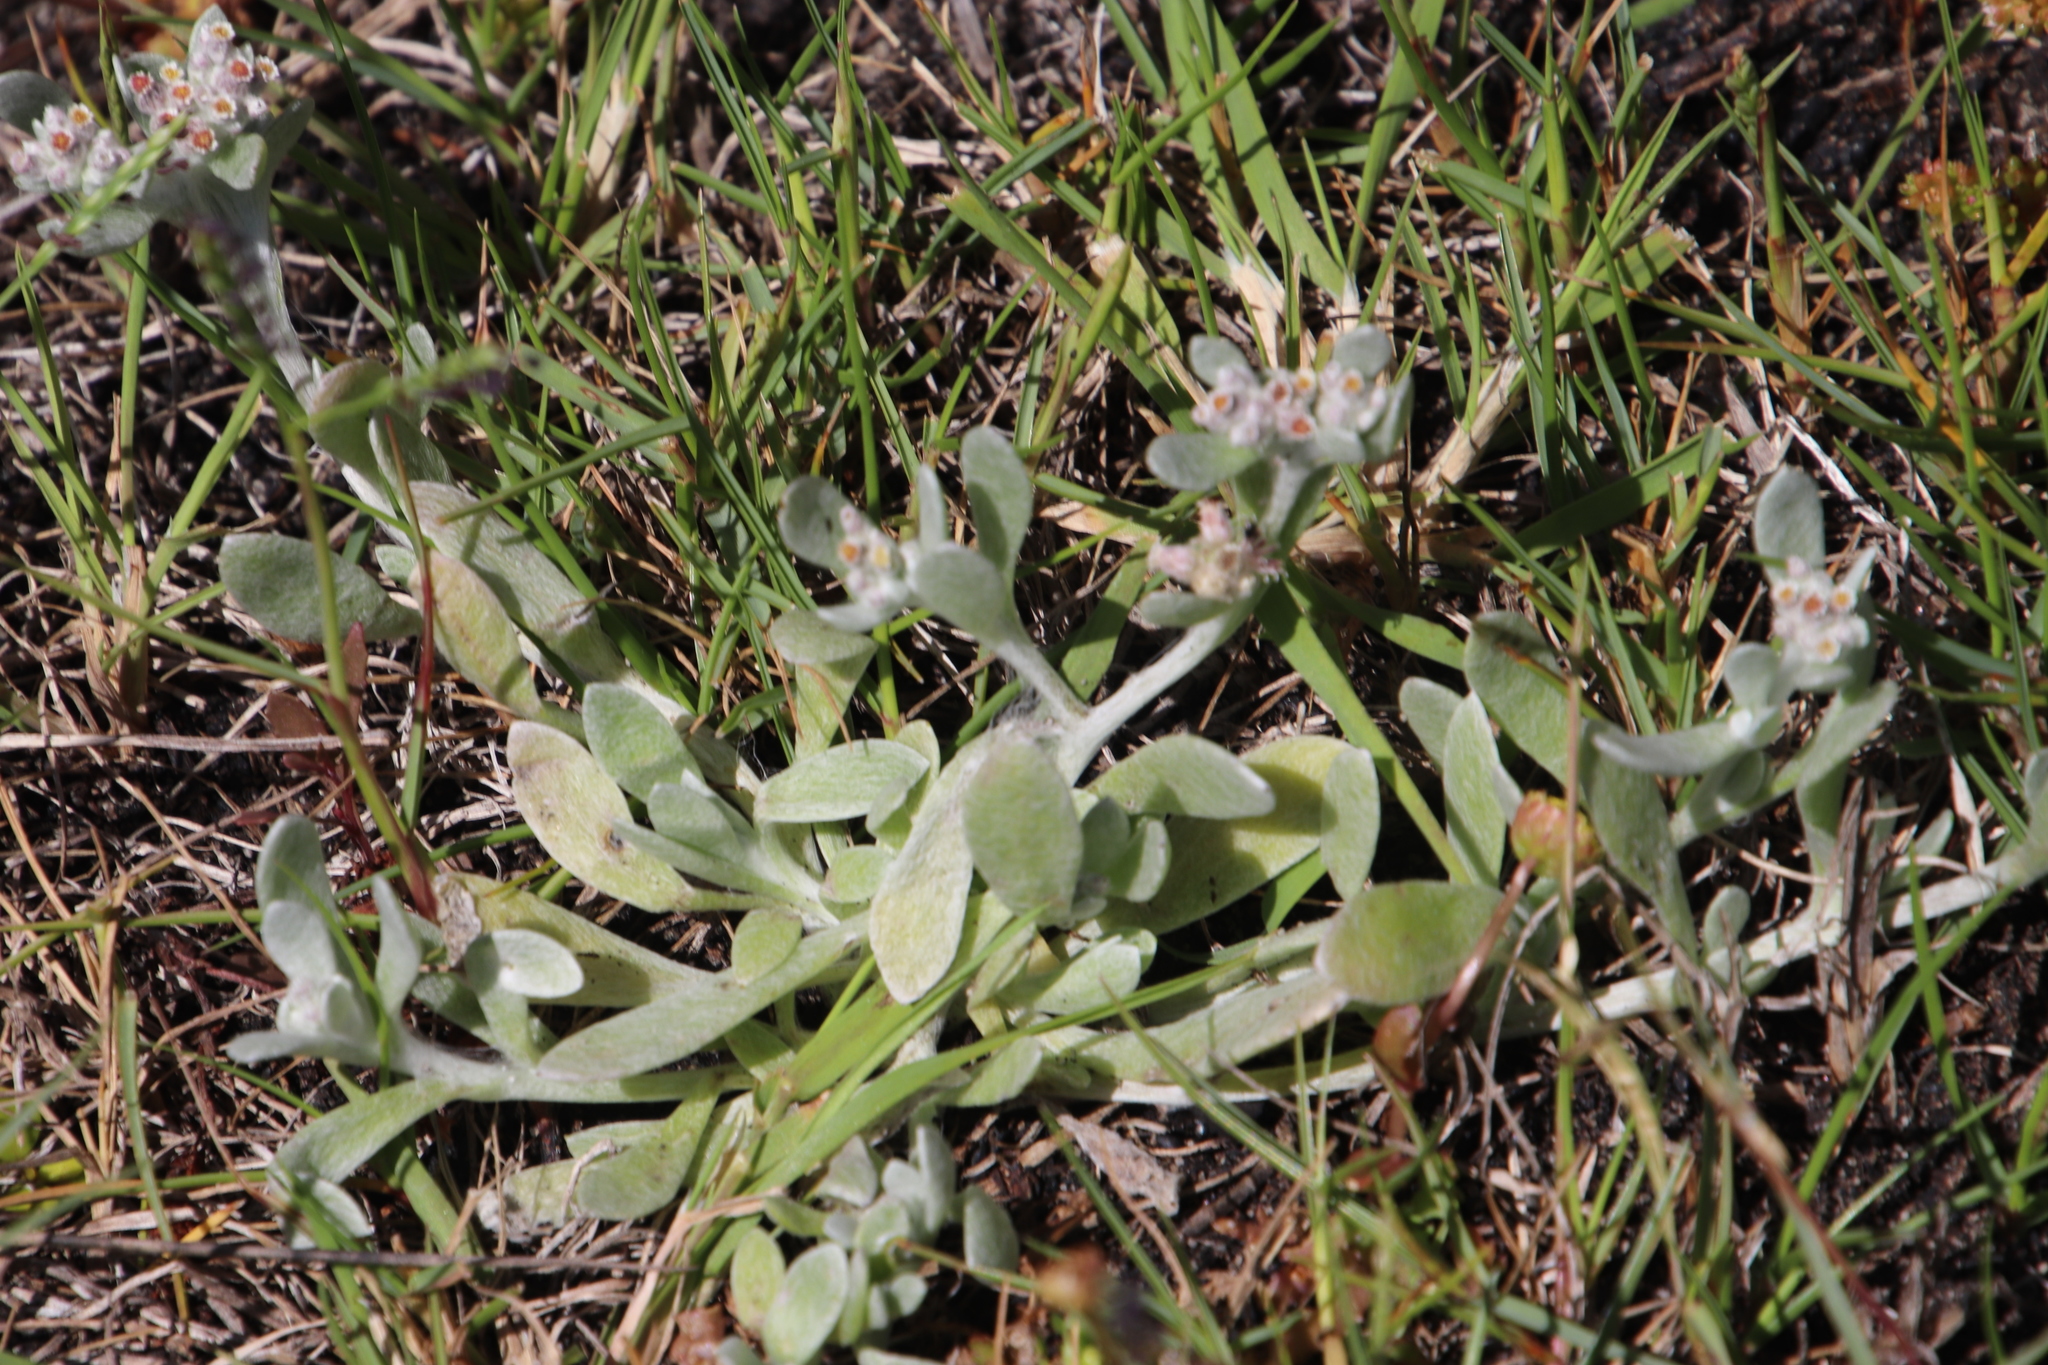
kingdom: Plantae
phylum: Tracheophyta
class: Magnoliopsida
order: Asterales
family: Asteraceae
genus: Vellereophyton
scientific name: Vellereophyton dealbatum
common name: White-cudweed
